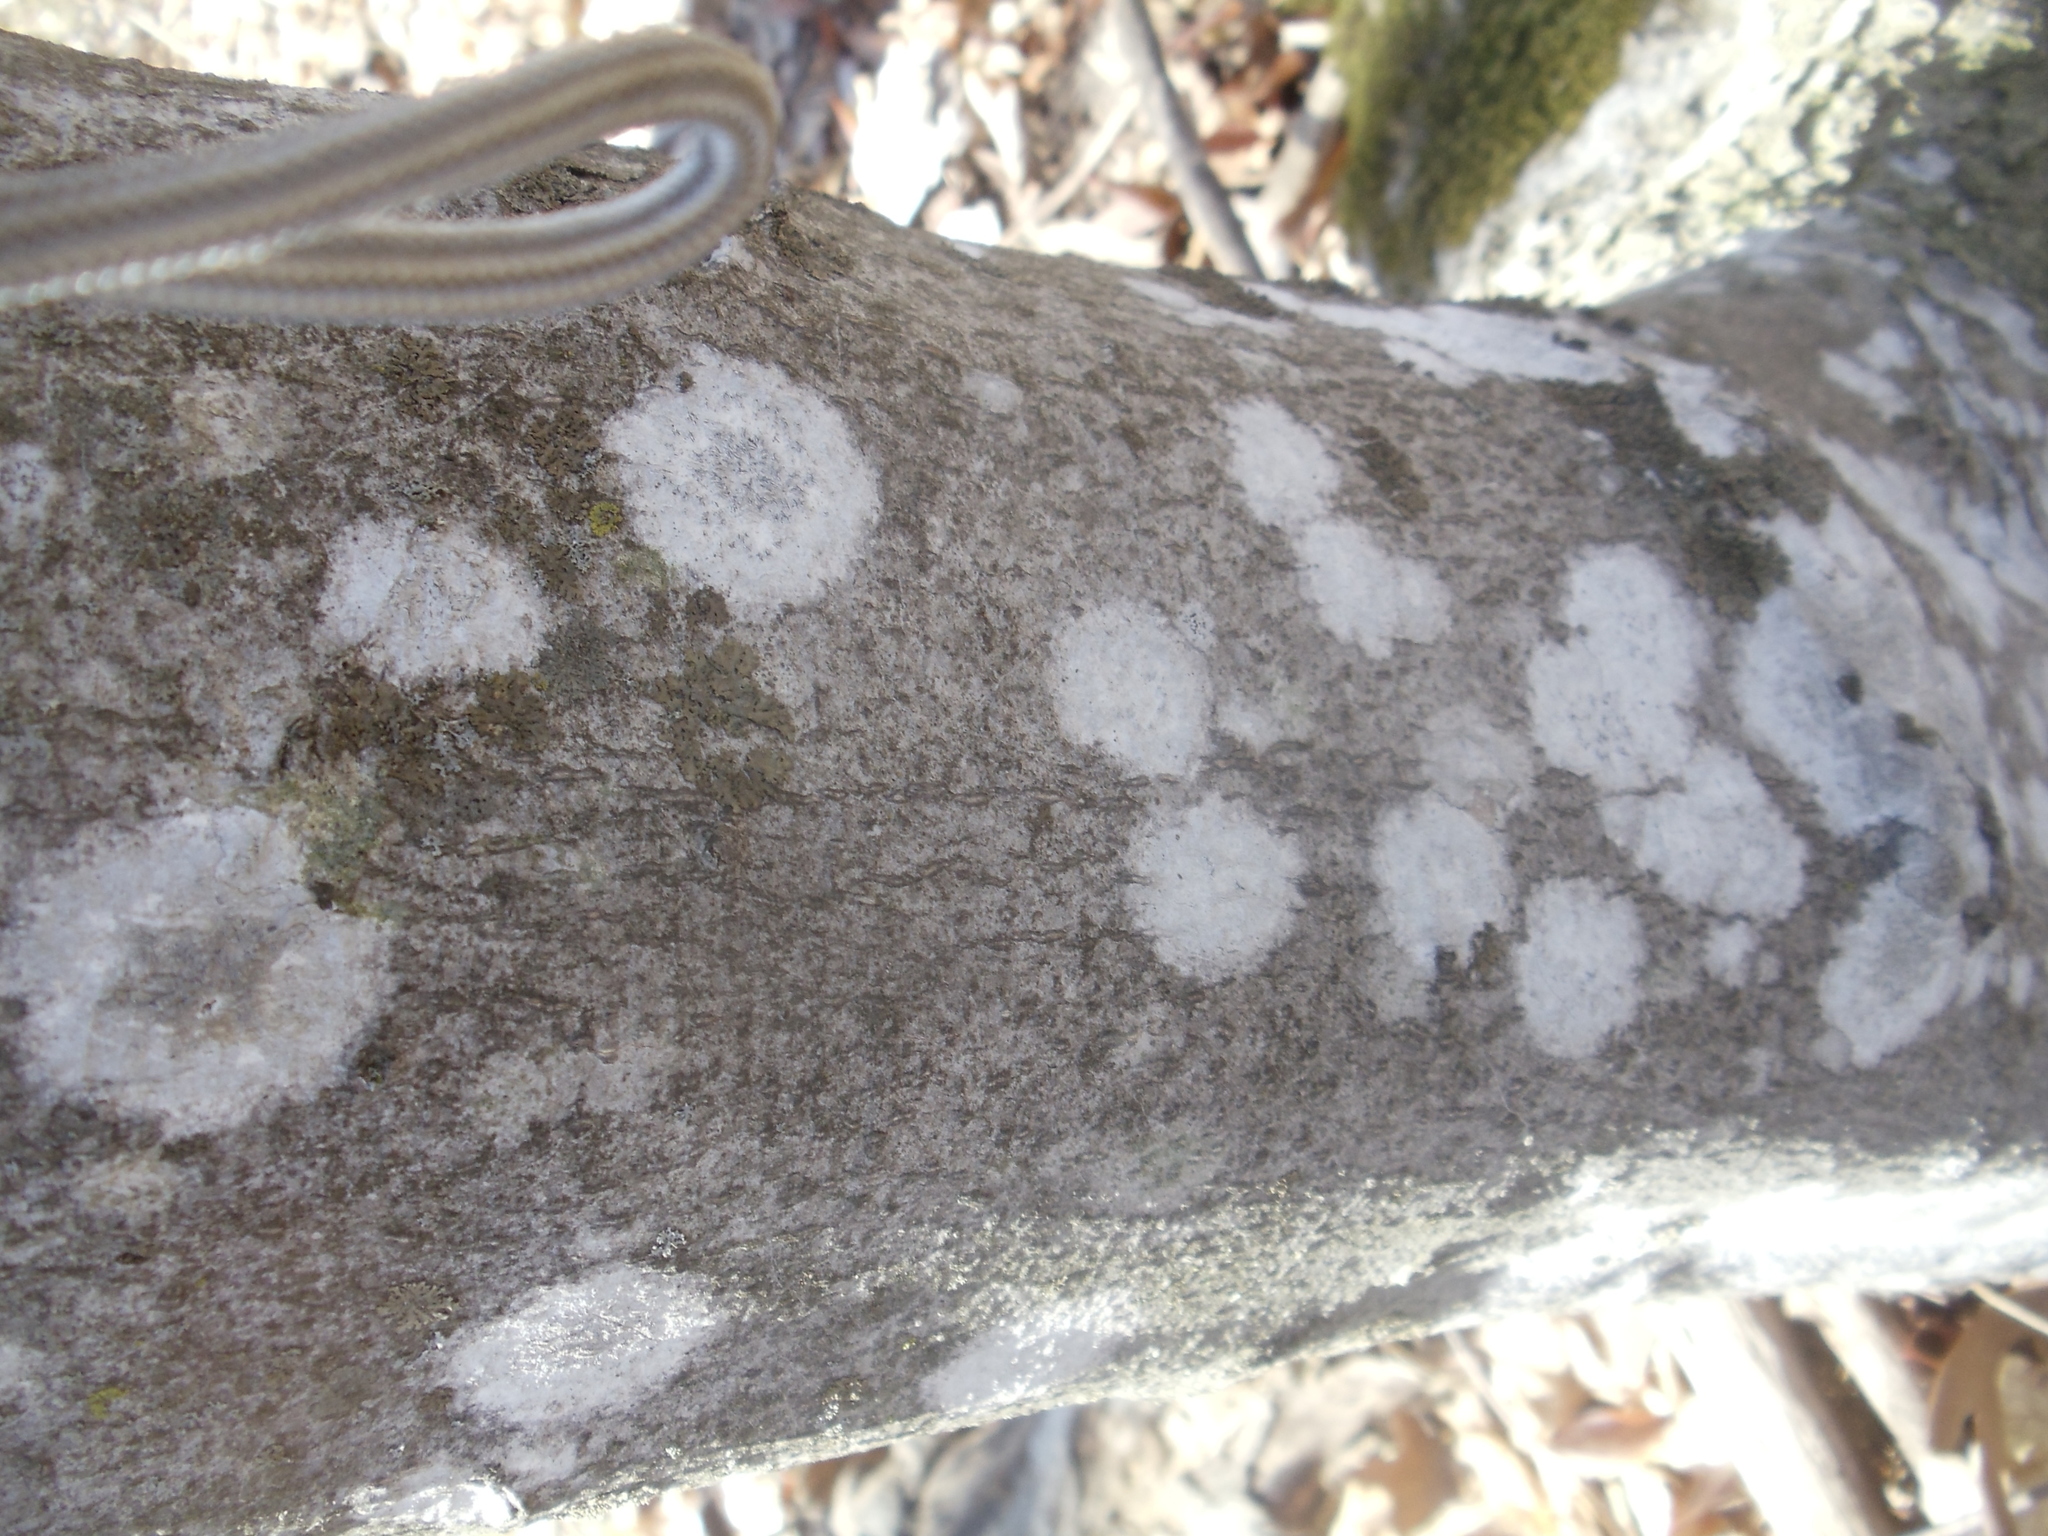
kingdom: Fungi
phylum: Ascomycota
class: Lecanoromycetes
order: Ostropales
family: Graphidaceae
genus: Graphis
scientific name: Graphis scripta
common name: Script lichen
